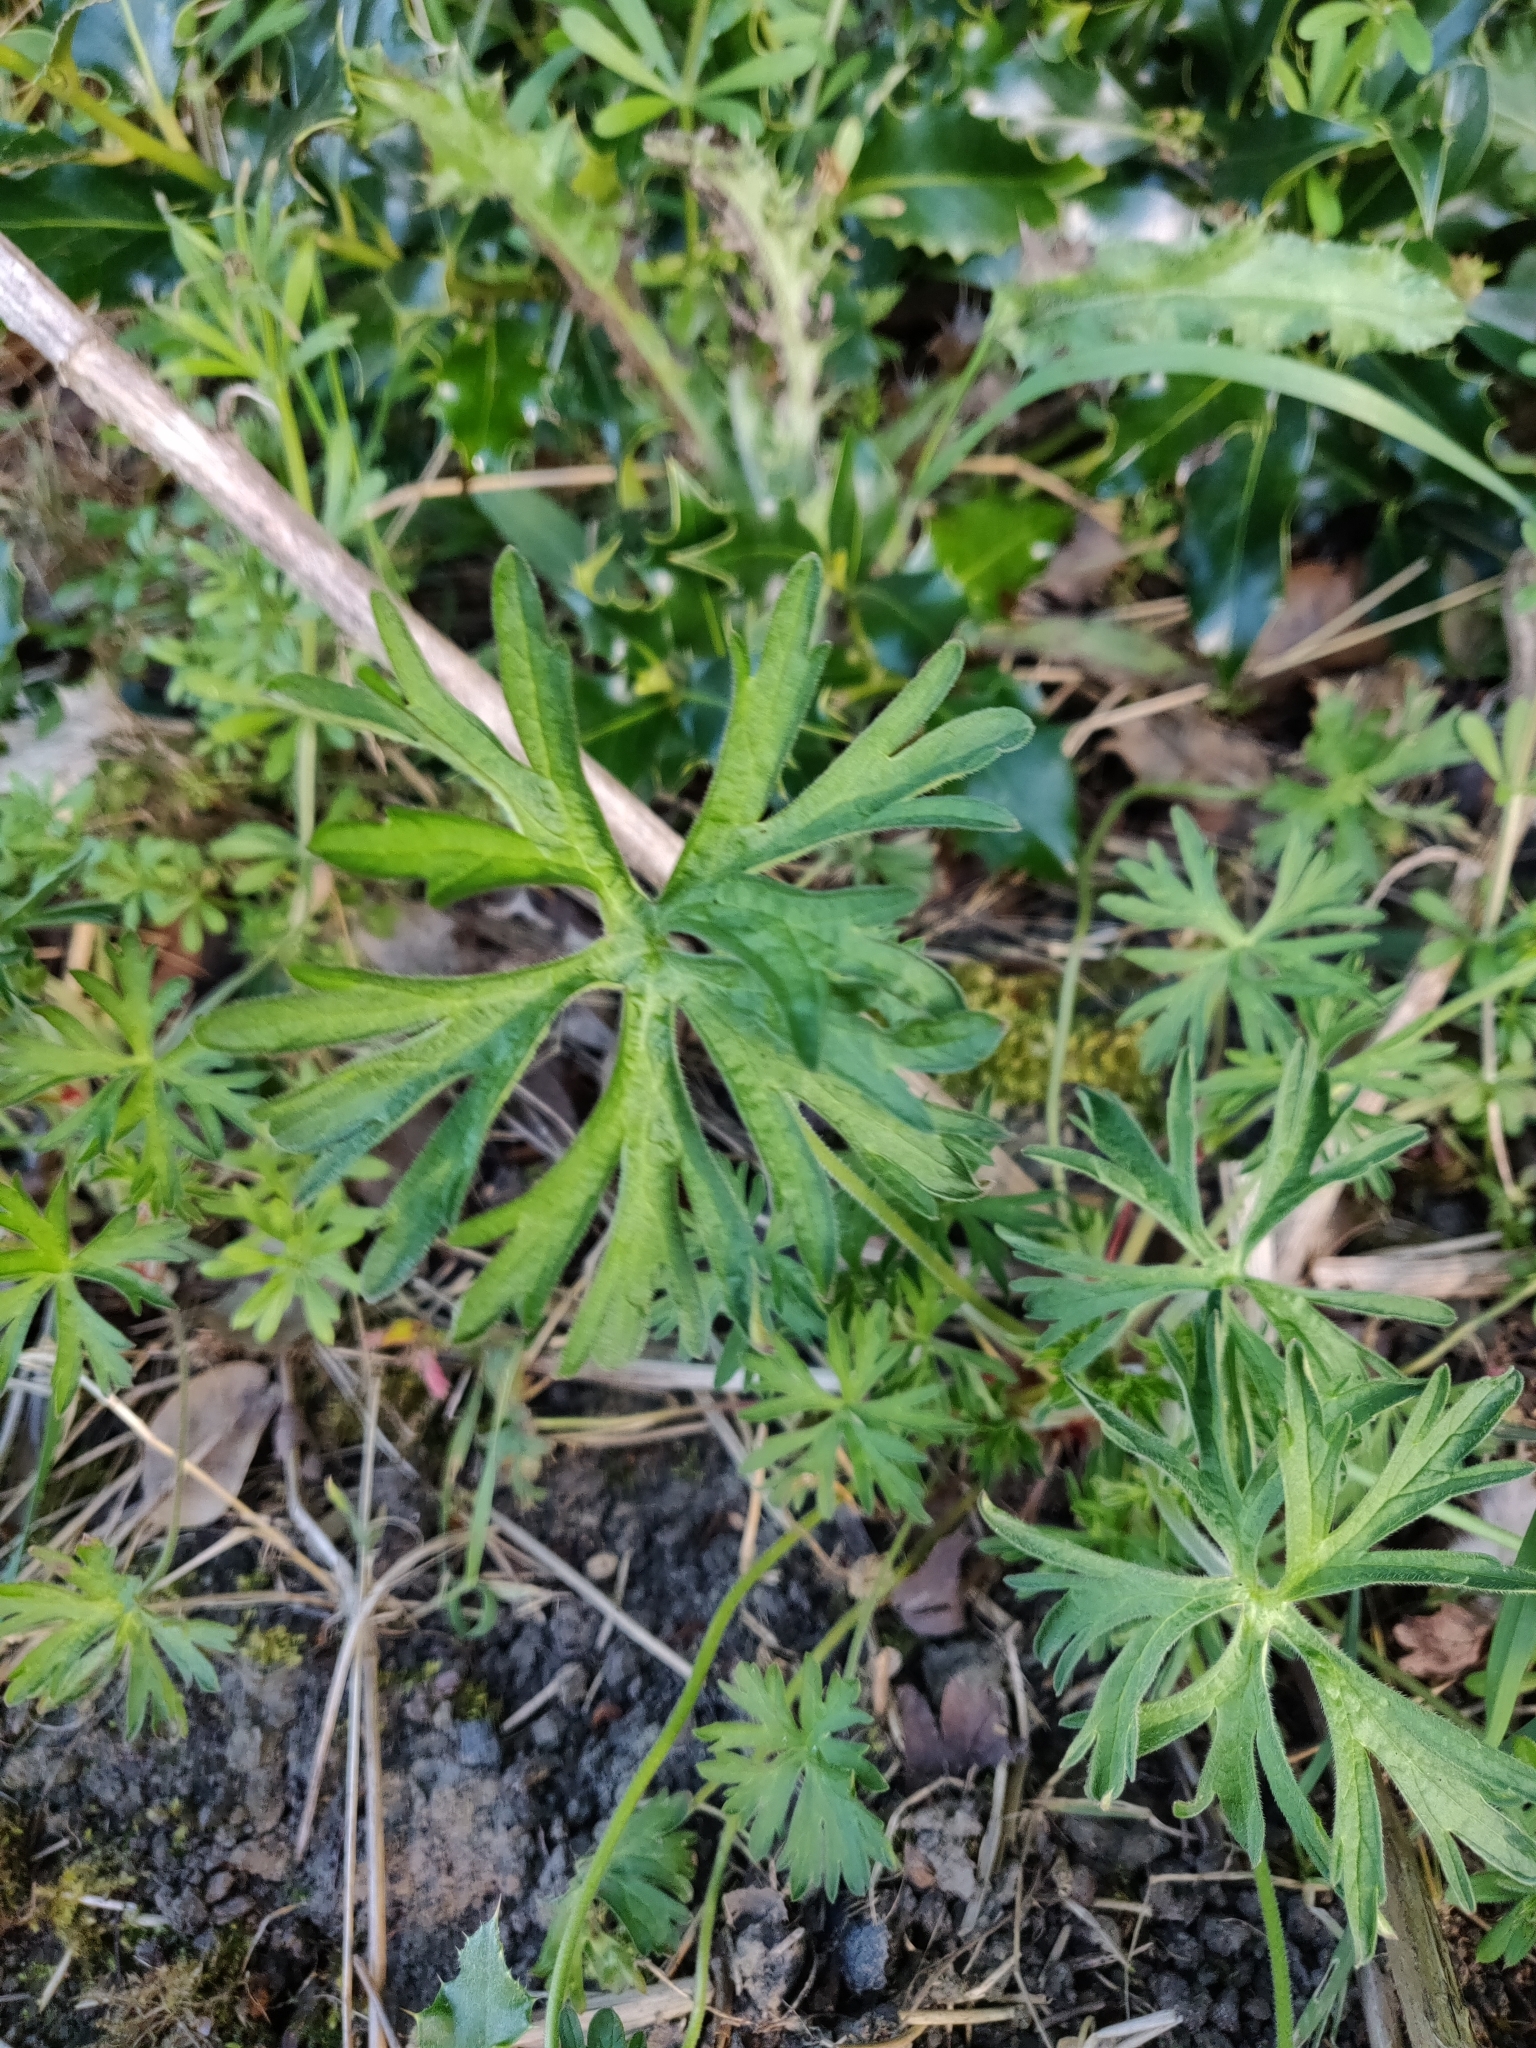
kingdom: Plantae
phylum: Tracheophyta
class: Magnoliopsida
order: Geraniales
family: Geraniaceae
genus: Geranium
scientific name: Geranium dissectum
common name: Cut-leaved crane's-bill
